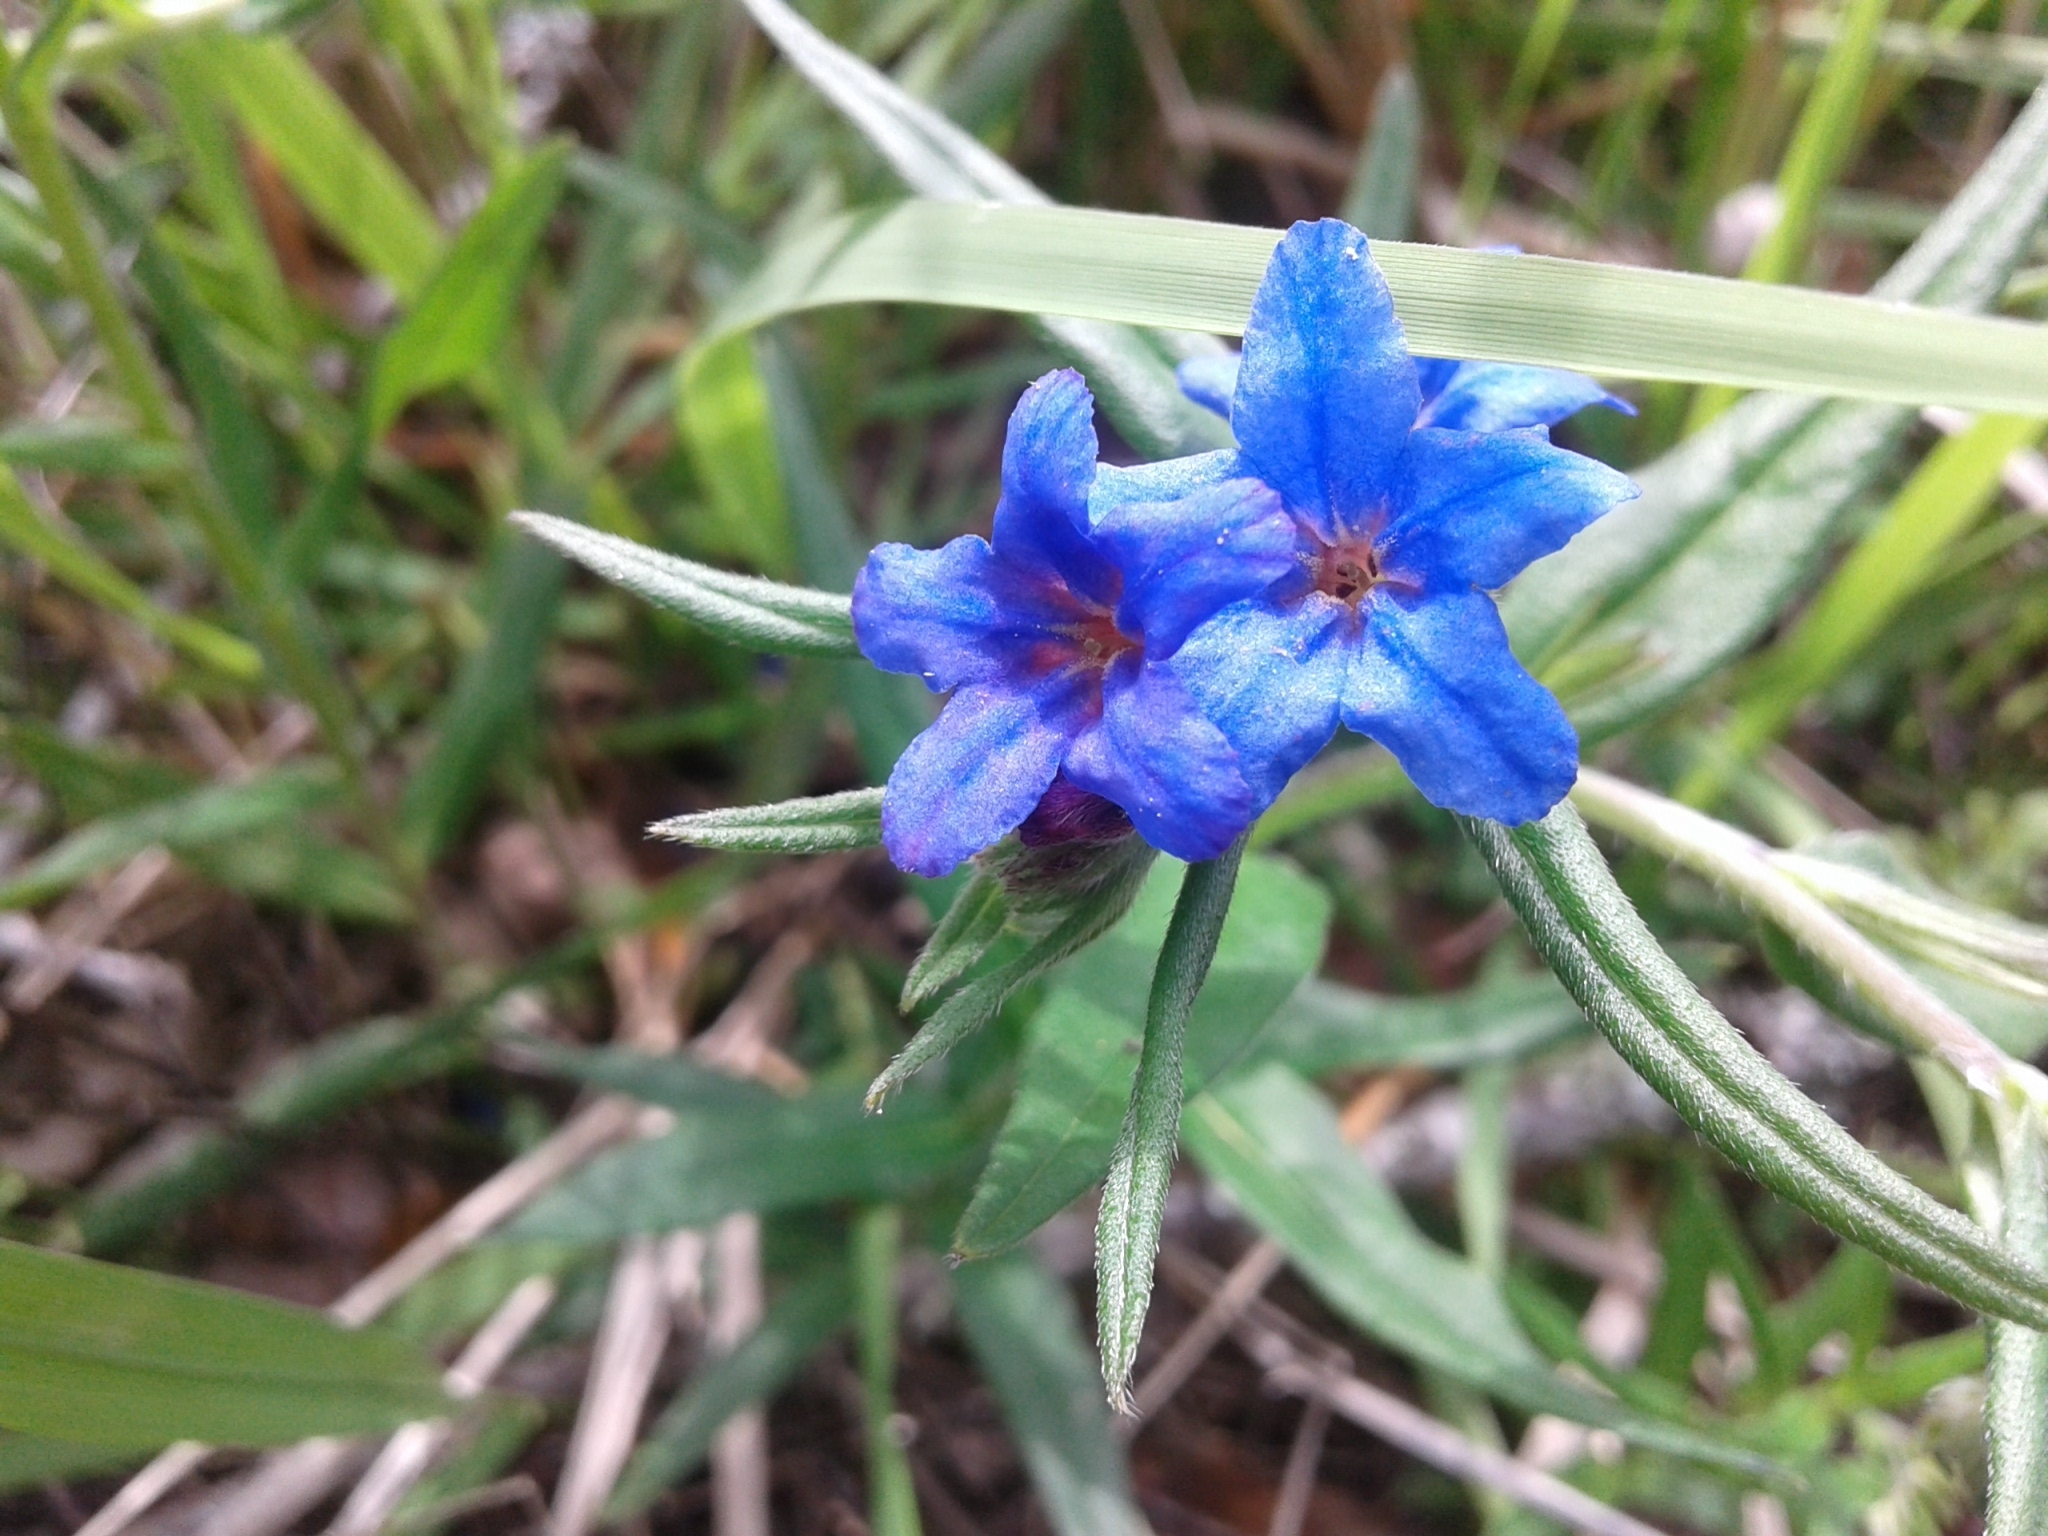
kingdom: Plantae
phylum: Tracheophyta
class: Magnoliopsida
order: Boraginales
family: Boraginaceae
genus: Aegonychon
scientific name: Aegonychon purpurocaeruleum
